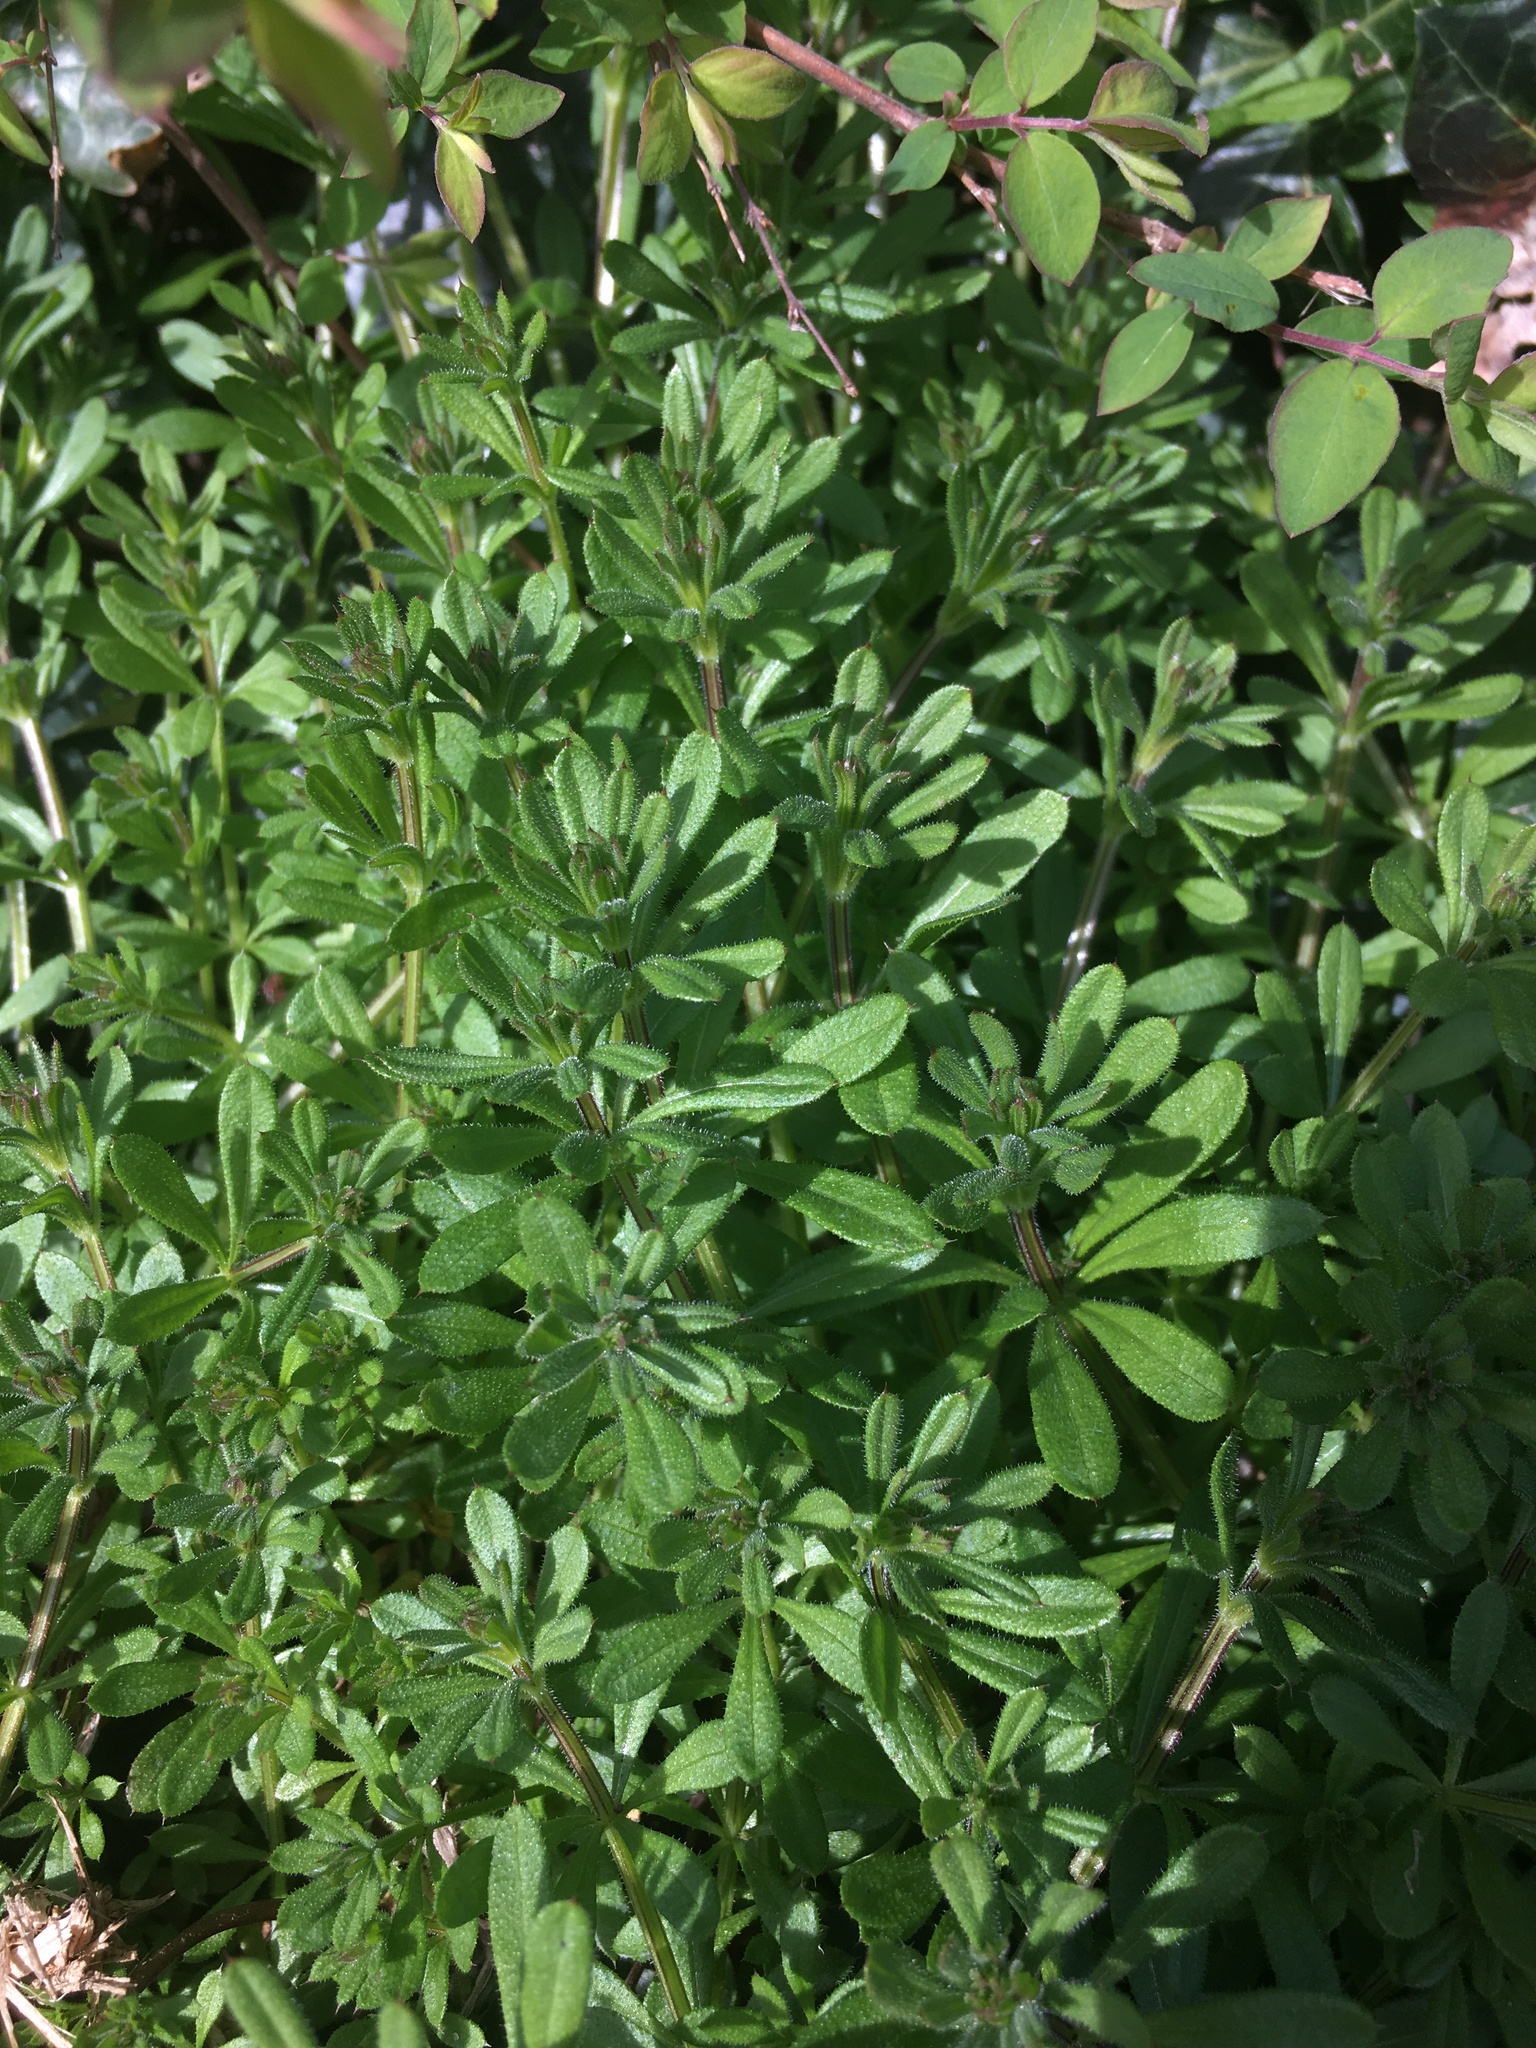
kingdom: Plantae
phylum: Tracheophyta
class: Magnoliopsida
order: Gentianales
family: Rubiaceae
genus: Galium
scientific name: Galium aparine
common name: Cleavers
